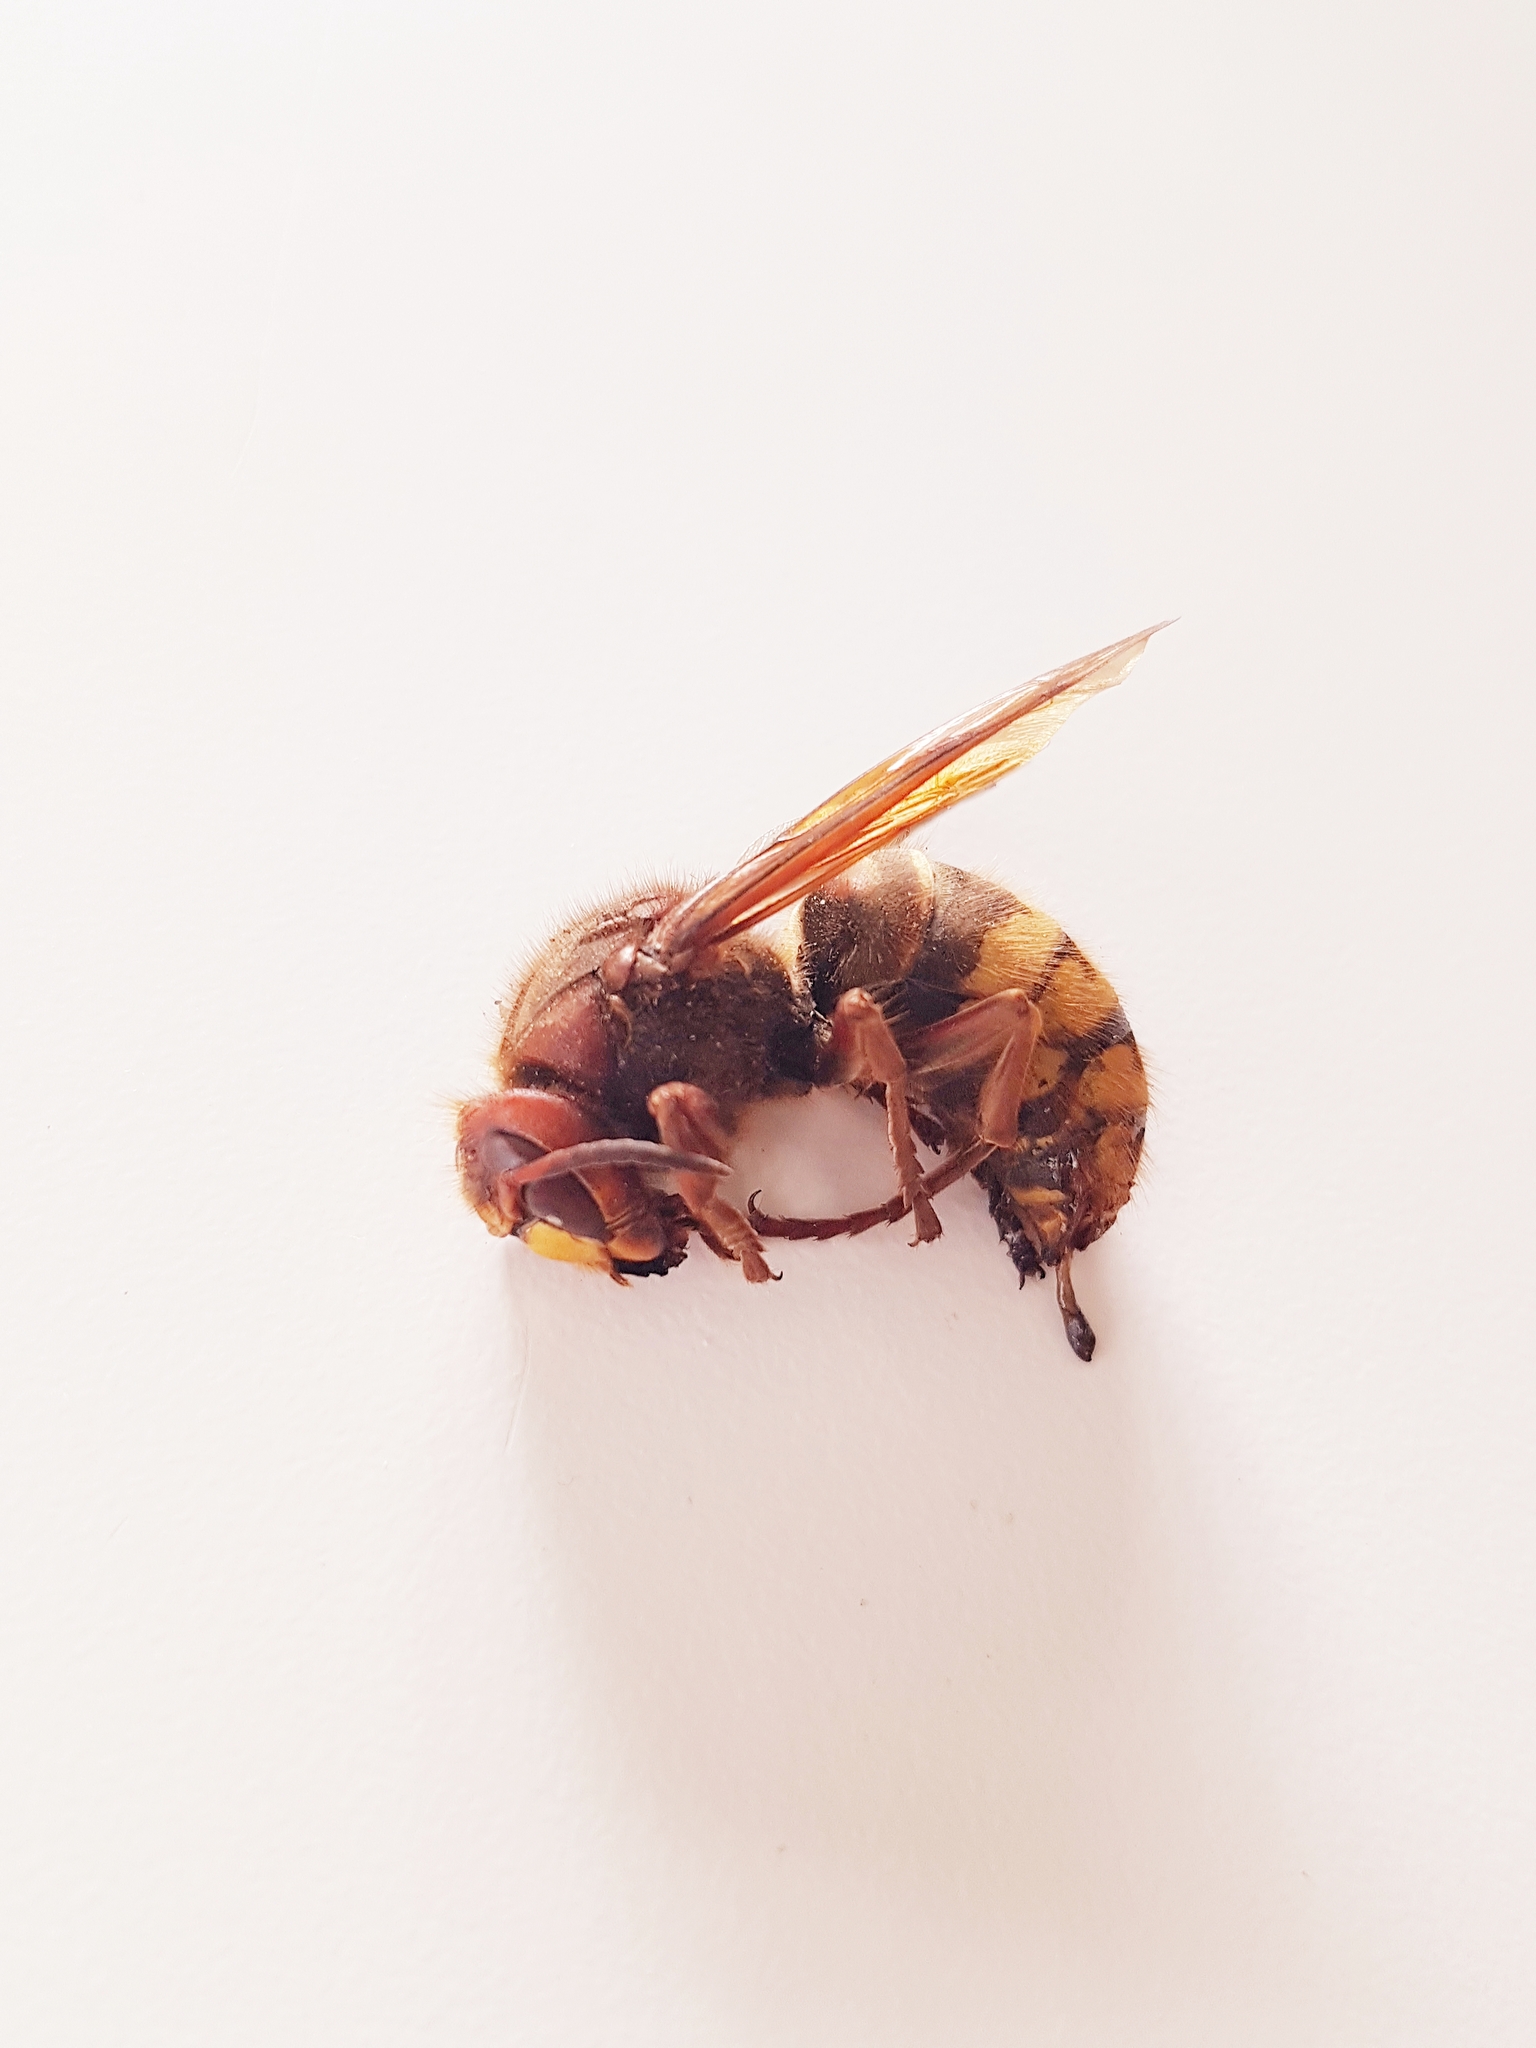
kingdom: Animalia
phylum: Arthropoda
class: Insecta
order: Hymenoptera
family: Vespidae
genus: Vespa
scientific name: Vespa crabro
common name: Hornet
